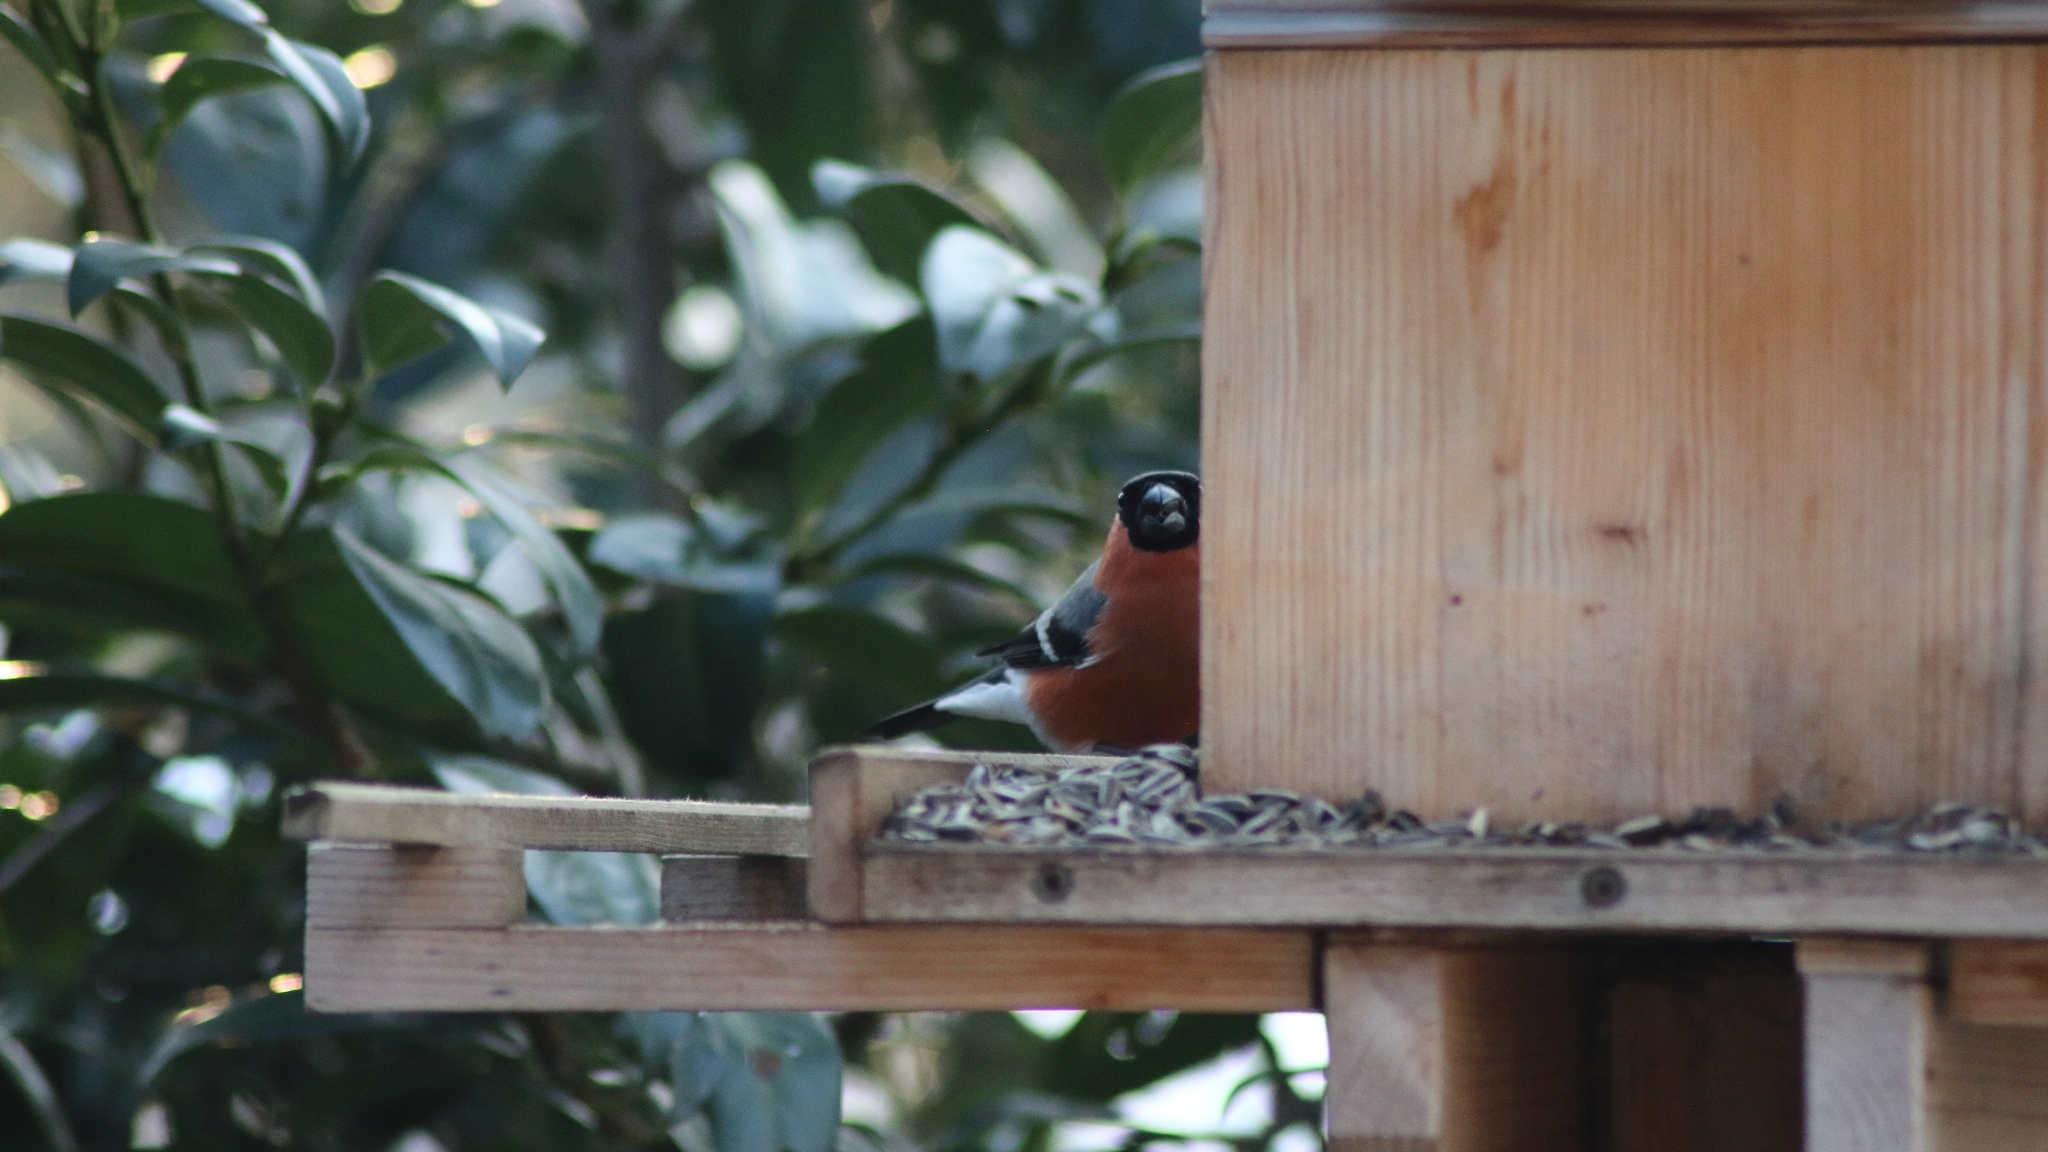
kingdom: Animalia
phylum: Chordata
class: Aves
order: Passeriformes
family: Fringillidae
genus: Pyrrhula
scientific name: Pyrrhula pyrrhula
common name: Eurasian bullfinch
